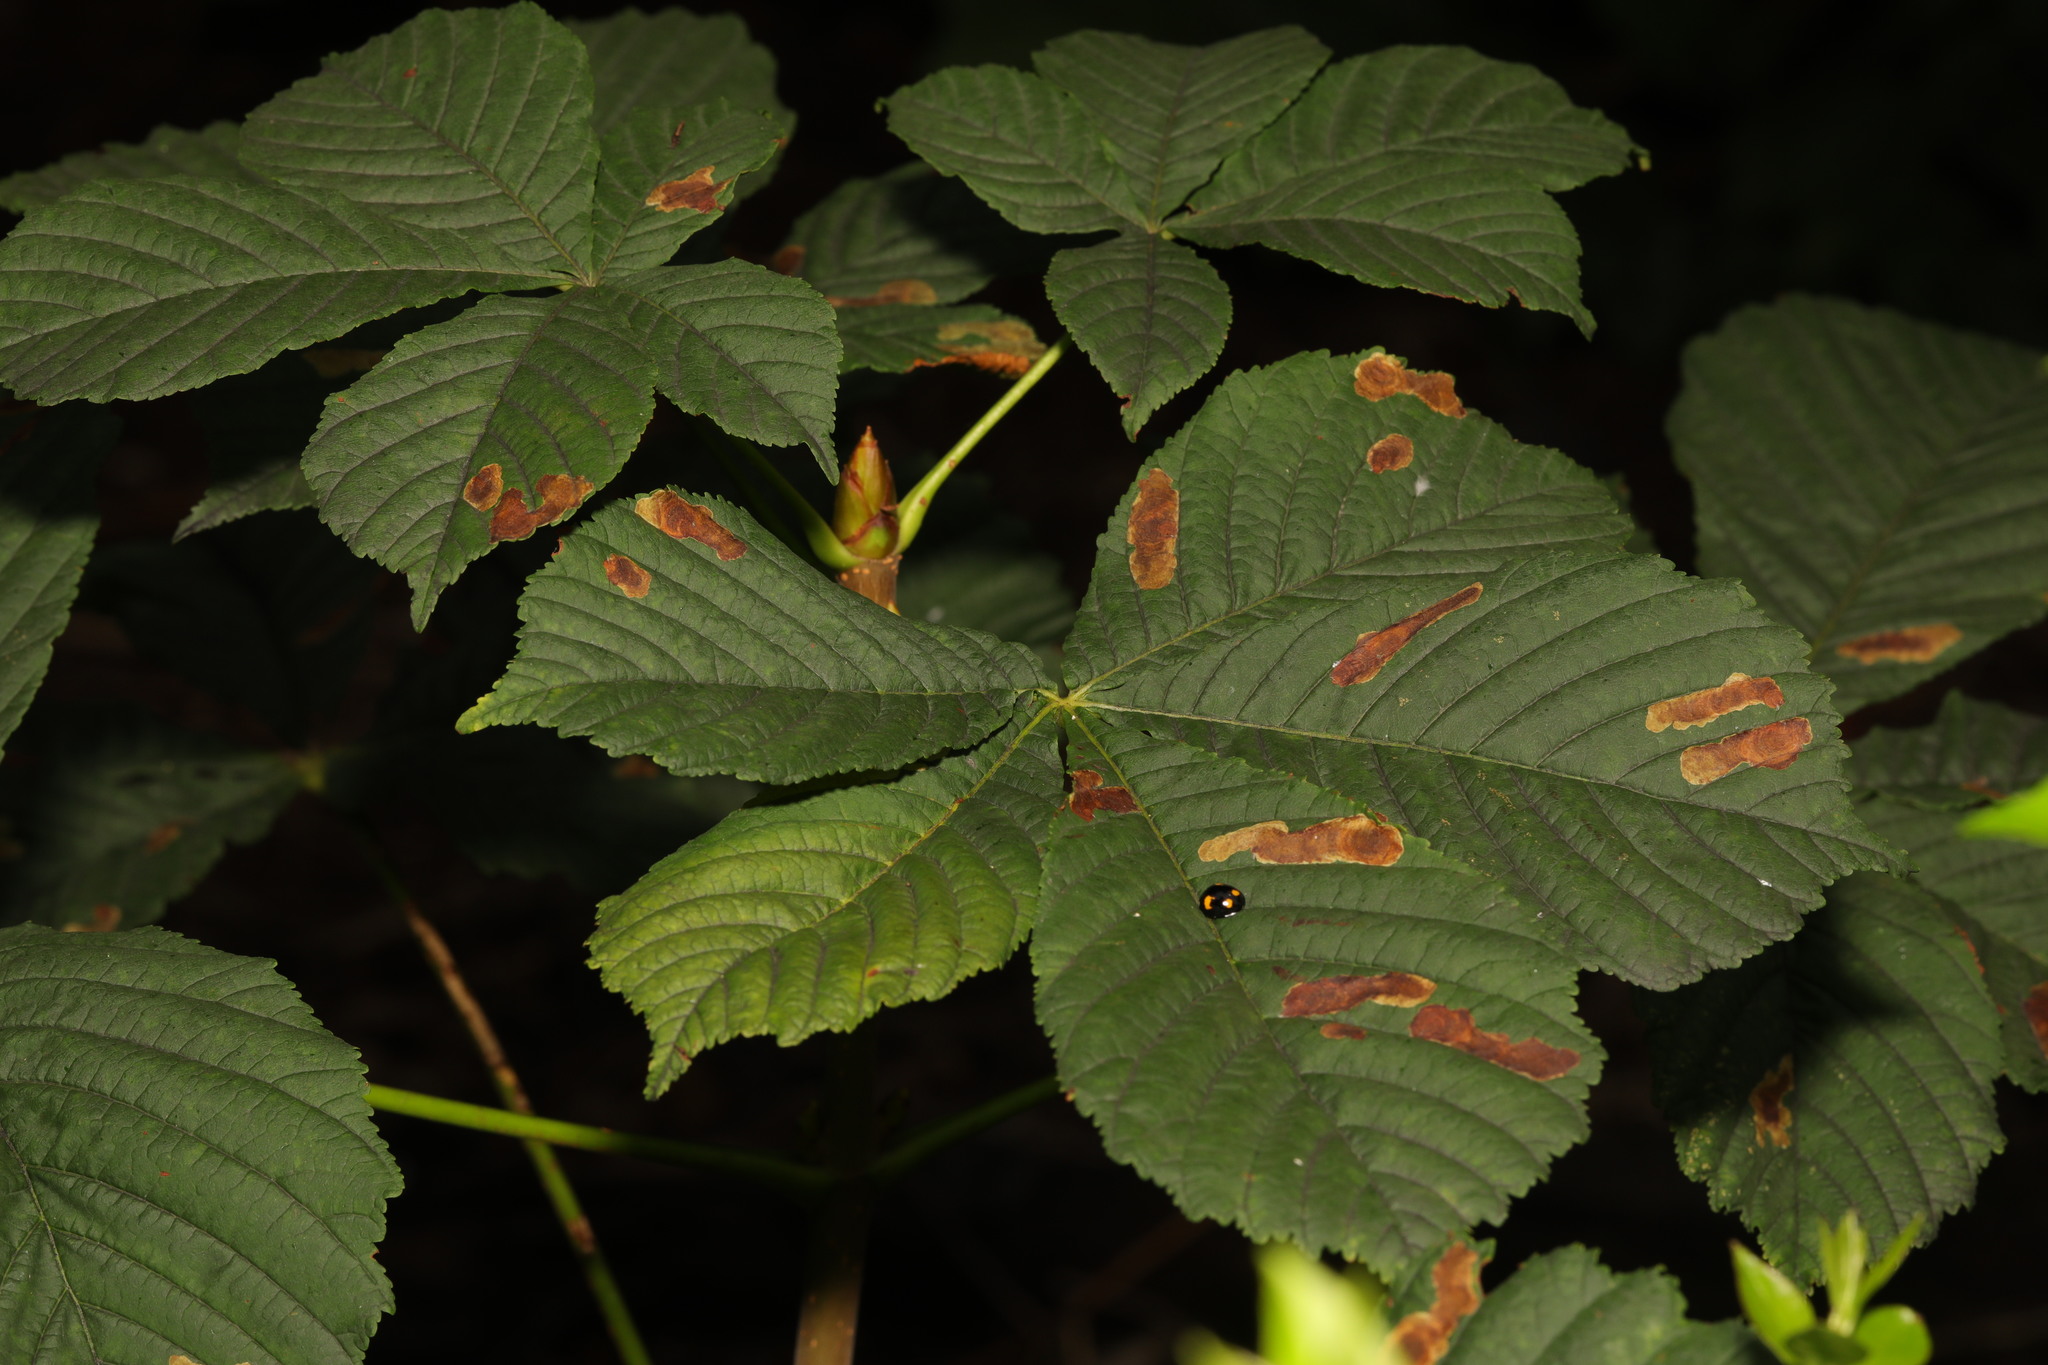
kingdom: Animalia
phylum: Arthropoda
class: Insecta
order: Lepidoptera
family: Gracillariidae
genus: Cameraria
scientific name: Cameraria ohridella
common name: Horse-chestnut leaf-miner
